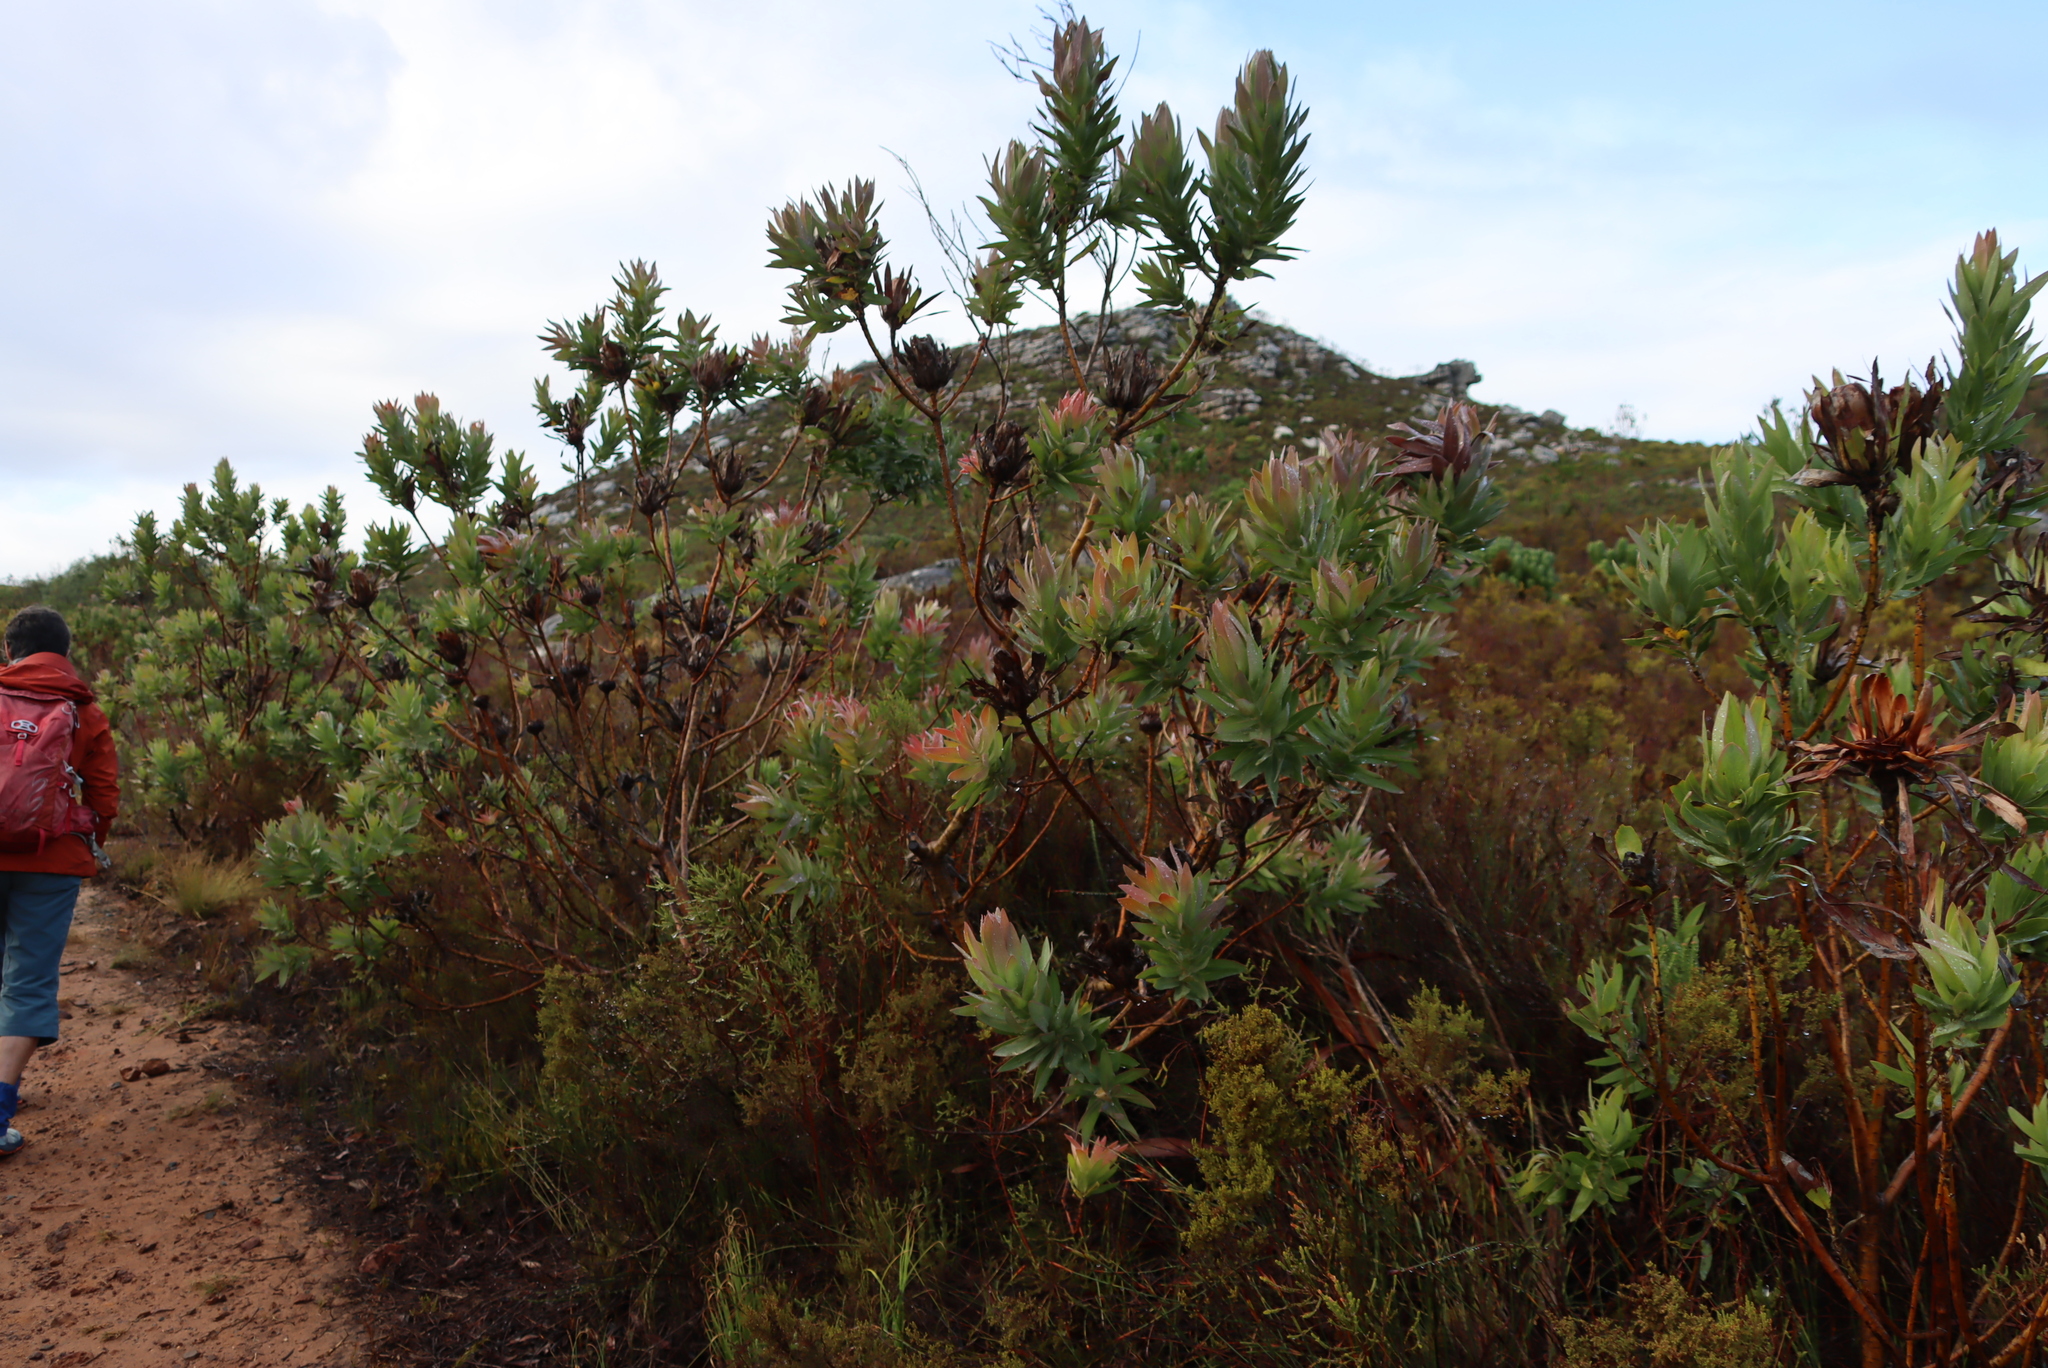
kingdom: Plantae
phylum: Tracheophyta
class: Magnoliopsida
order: Proteales
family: Proteaceae
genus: Protea
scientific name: Protea coronata
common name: Green sugarbush
